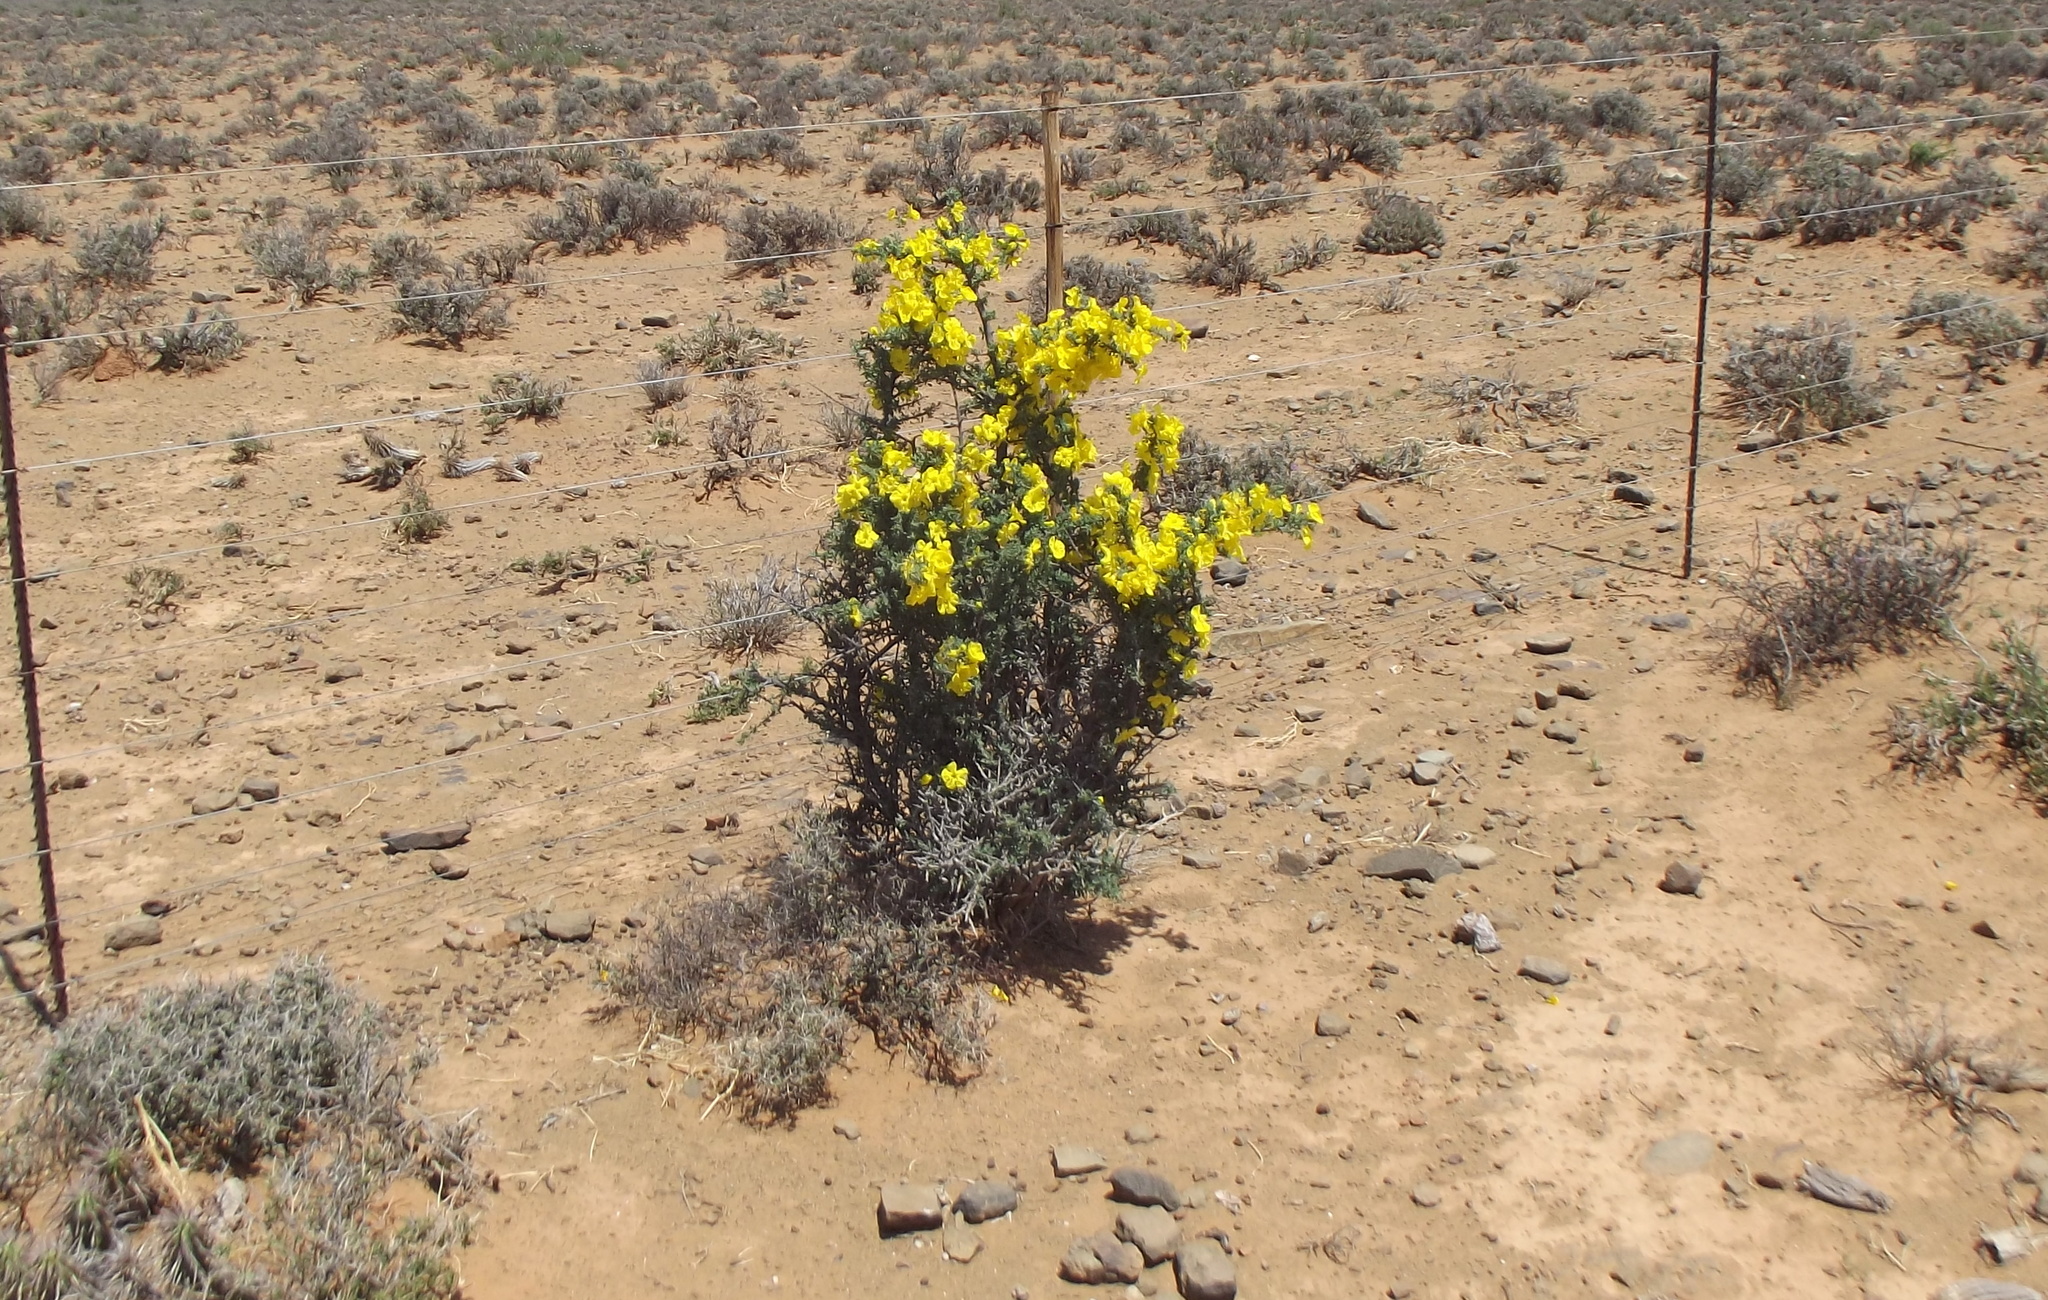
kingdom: Plantae
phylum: Tracheophyta
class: Magnoliopsida
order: Lamiales
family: Bignoniaceae
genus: Rhigozum
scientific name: Rhigozum obovatum
